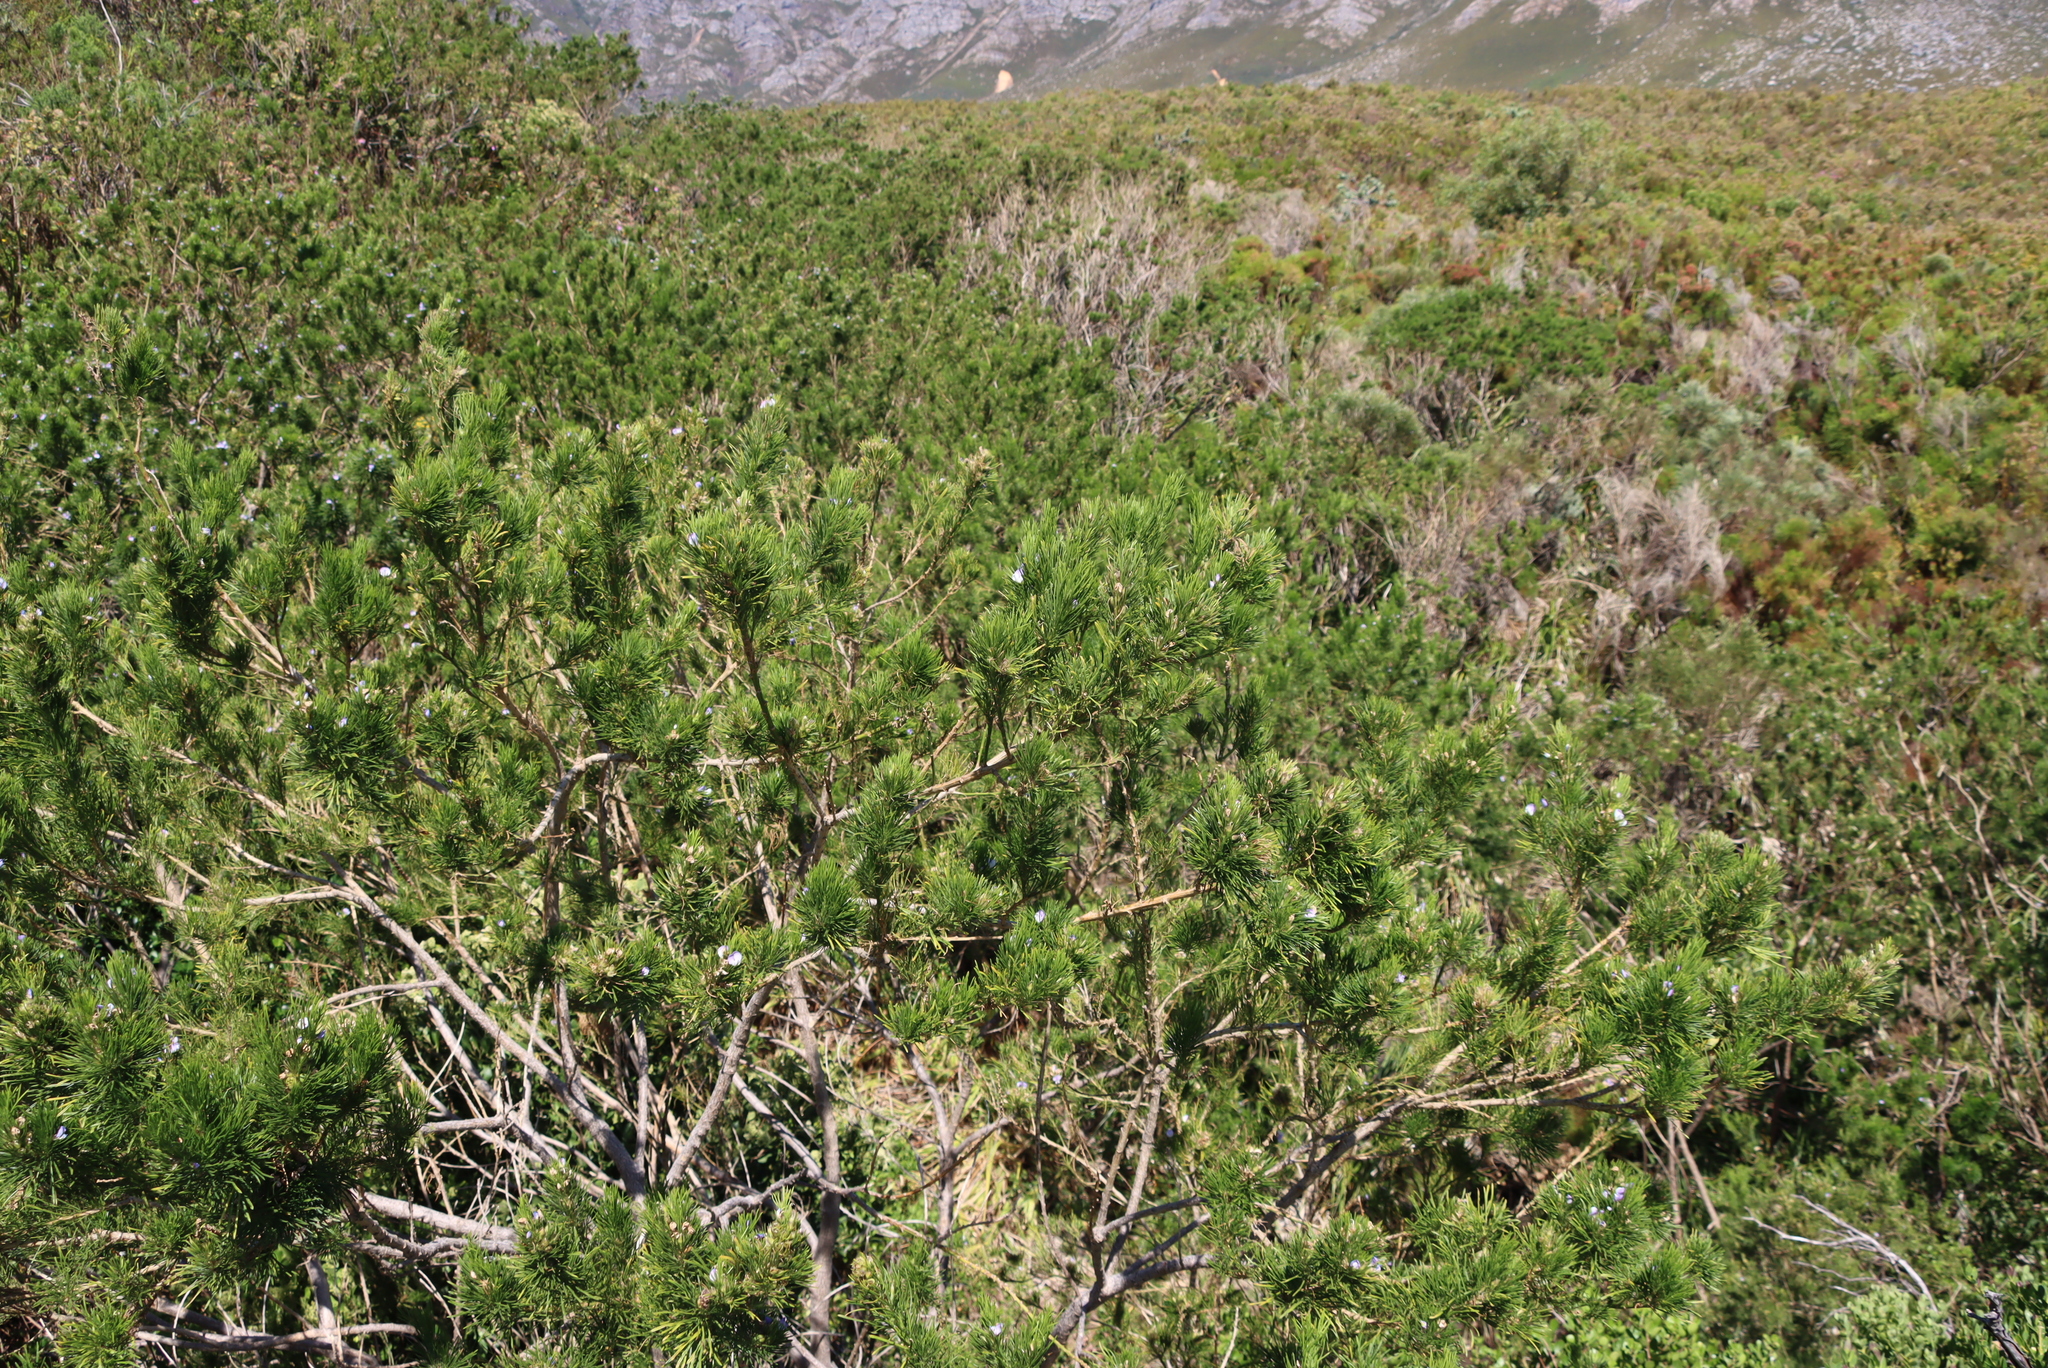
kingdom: Plantae
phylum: Tracheophyta
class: Magnoliopsida
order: Fabales
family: Fabaceae
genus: Psoralea
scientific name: Psoralea pinnata
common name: African scurfpea
